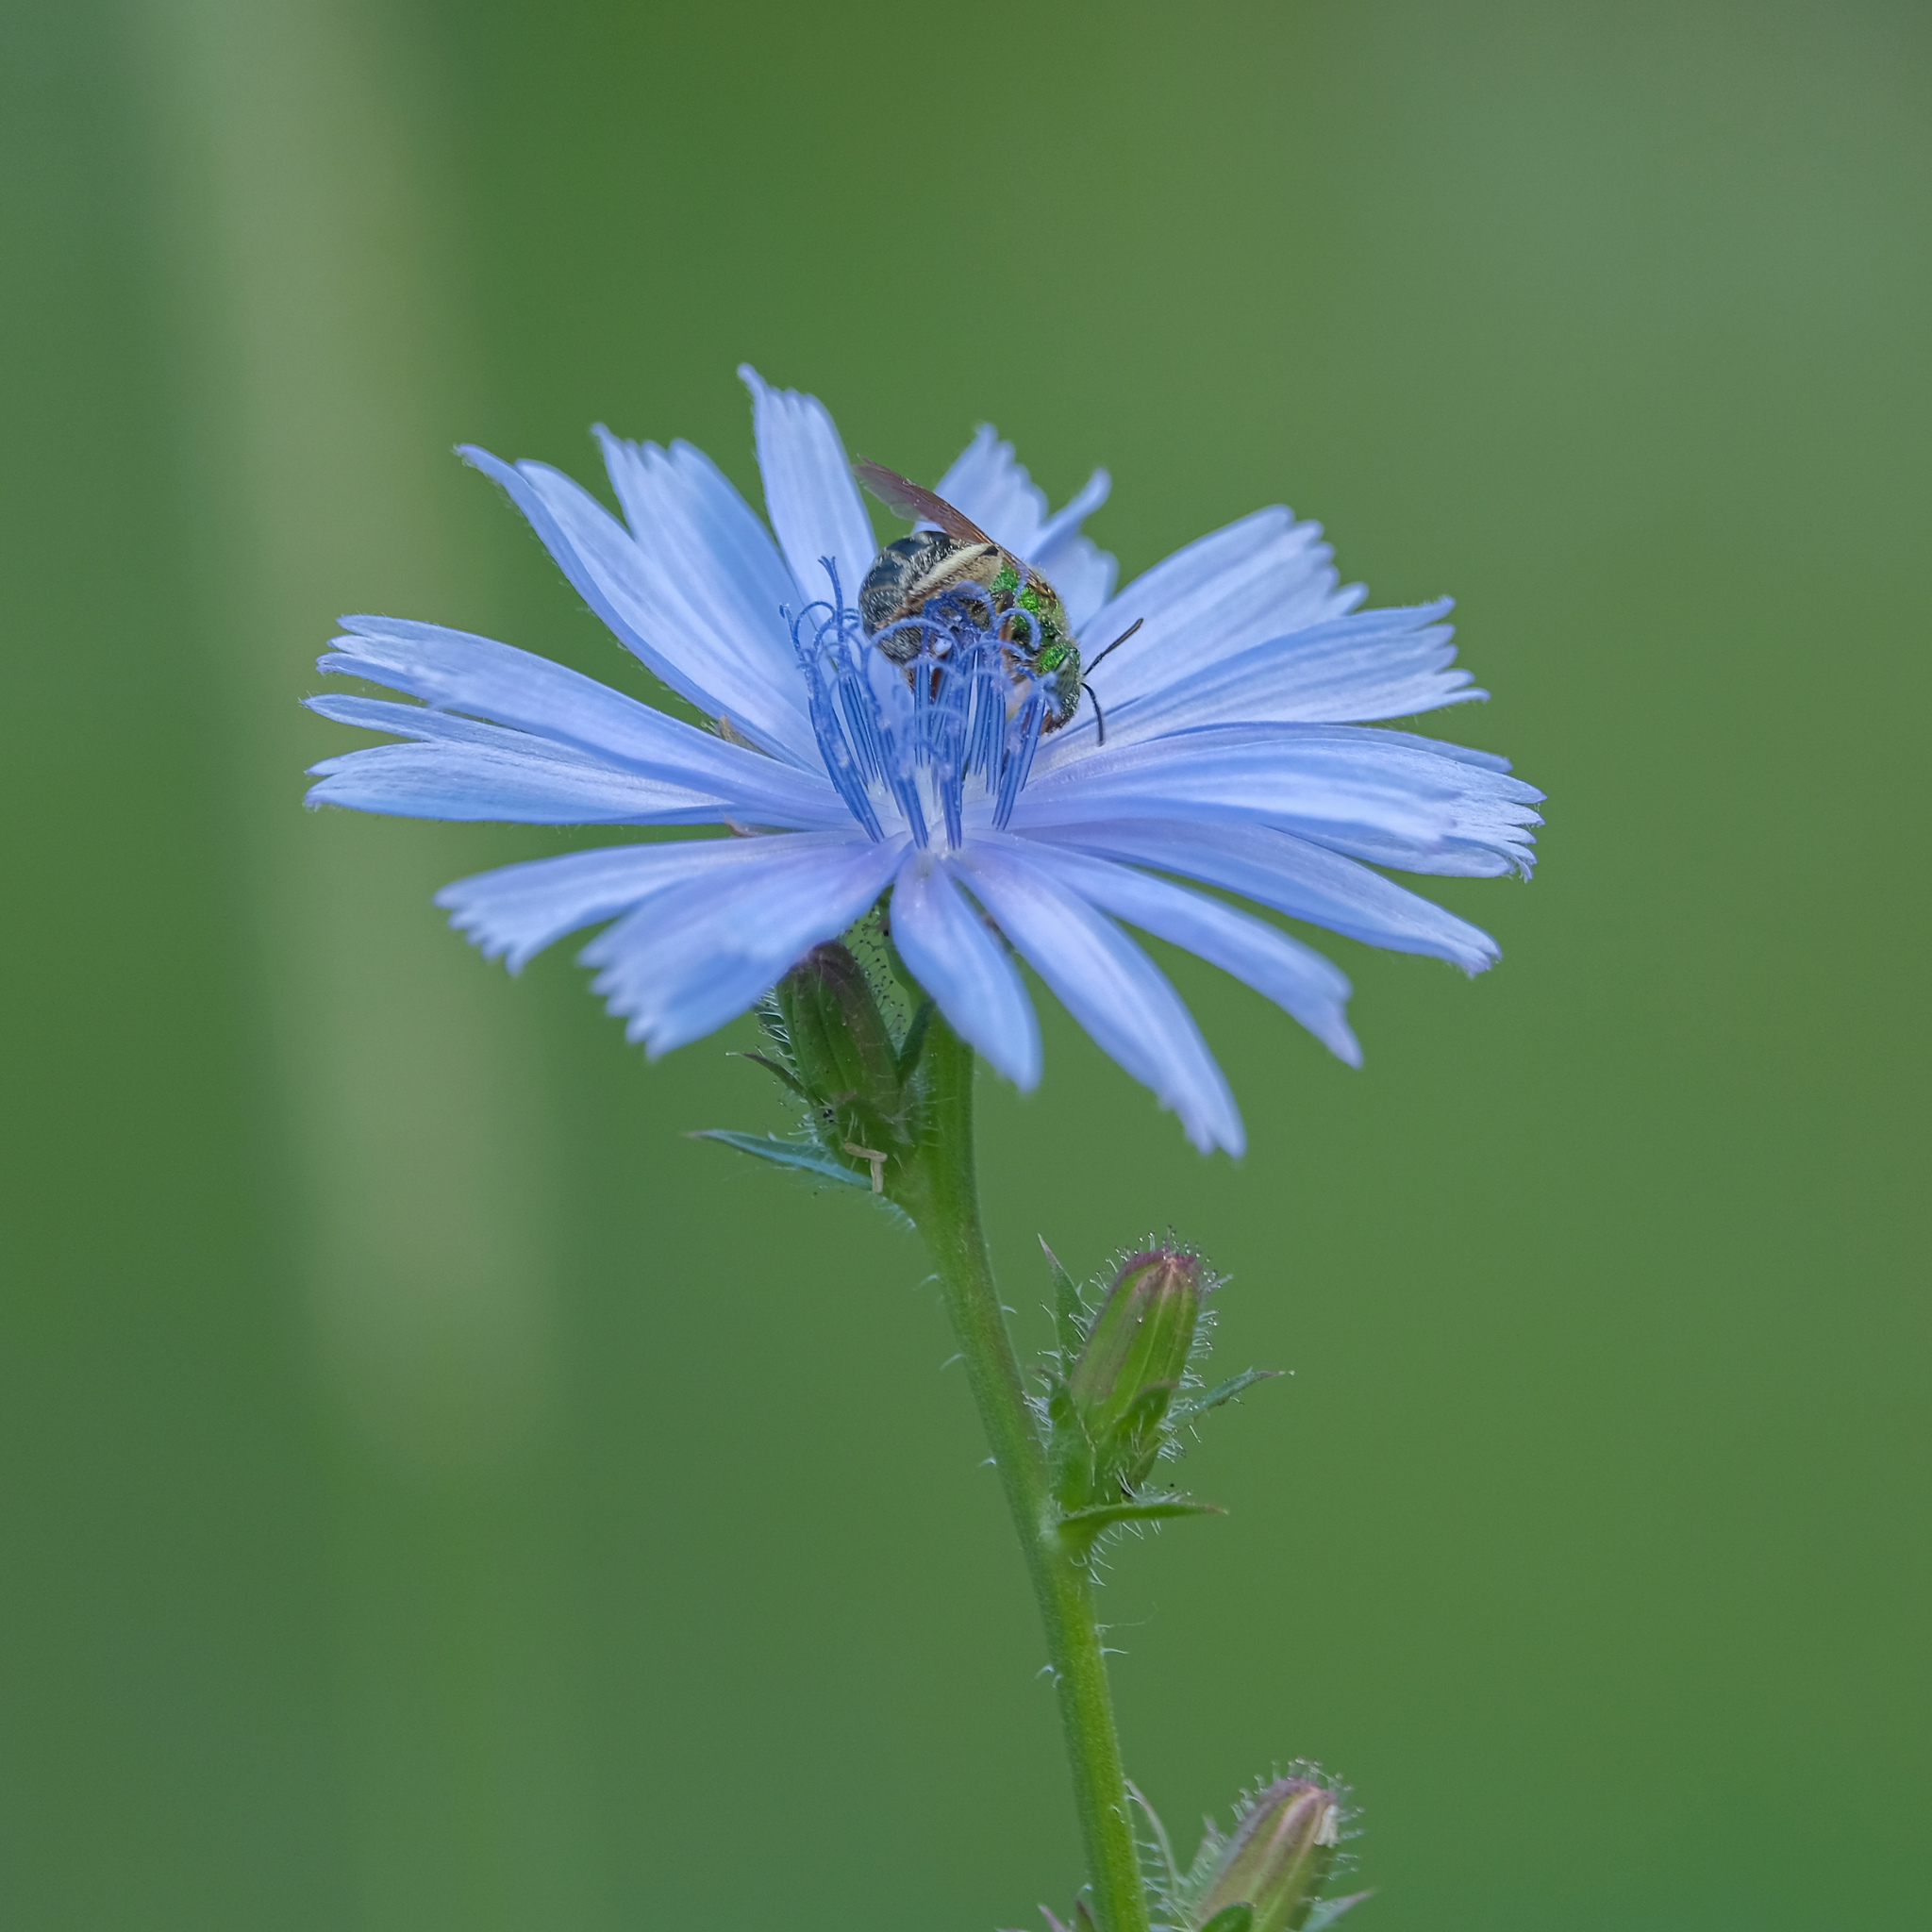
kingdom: Animalia
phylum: Arthropoda
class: Insecta
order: Hymenoptera
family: Halictidae
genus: Agapostemon
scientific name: Agapostemon virescens
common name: Bicolored striped sweat bee
